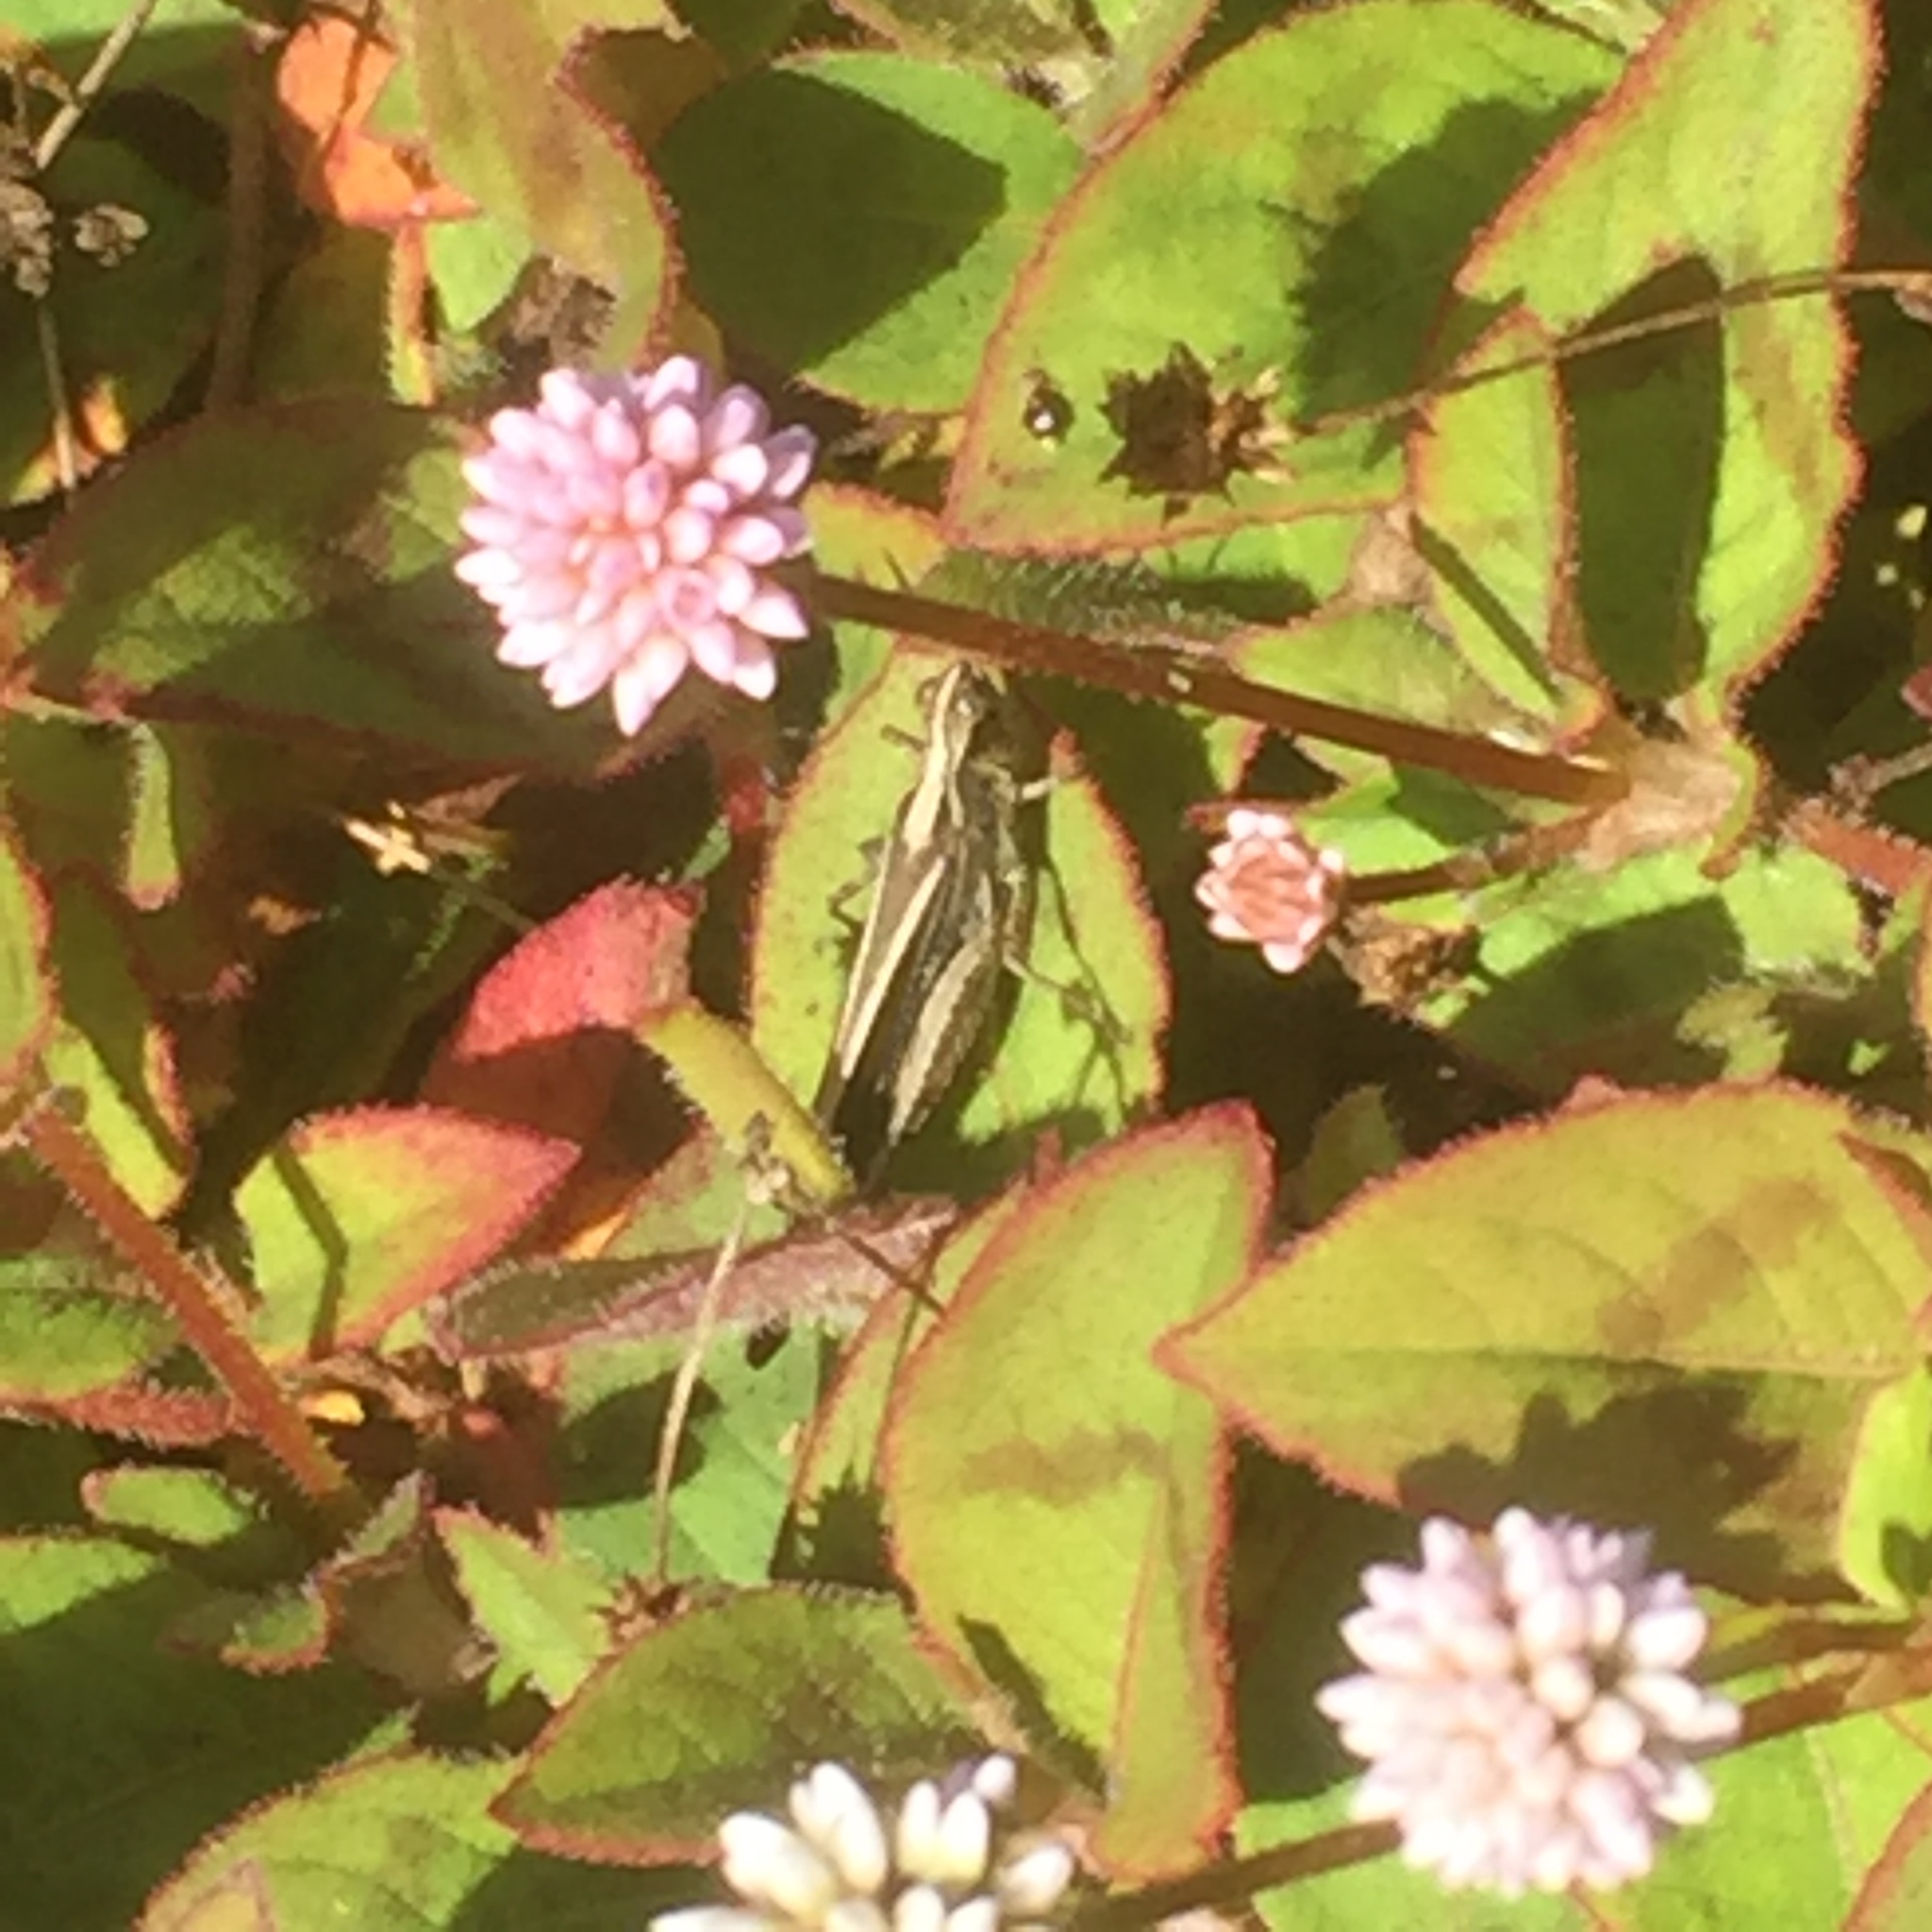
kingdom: Plantae
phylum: Tracheophyta
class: Magnoliopsida
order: Caryophyllales
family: Polygonaceae
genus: Persicaria
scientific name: Persicaria capitata
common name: Pinkhead smartweed
